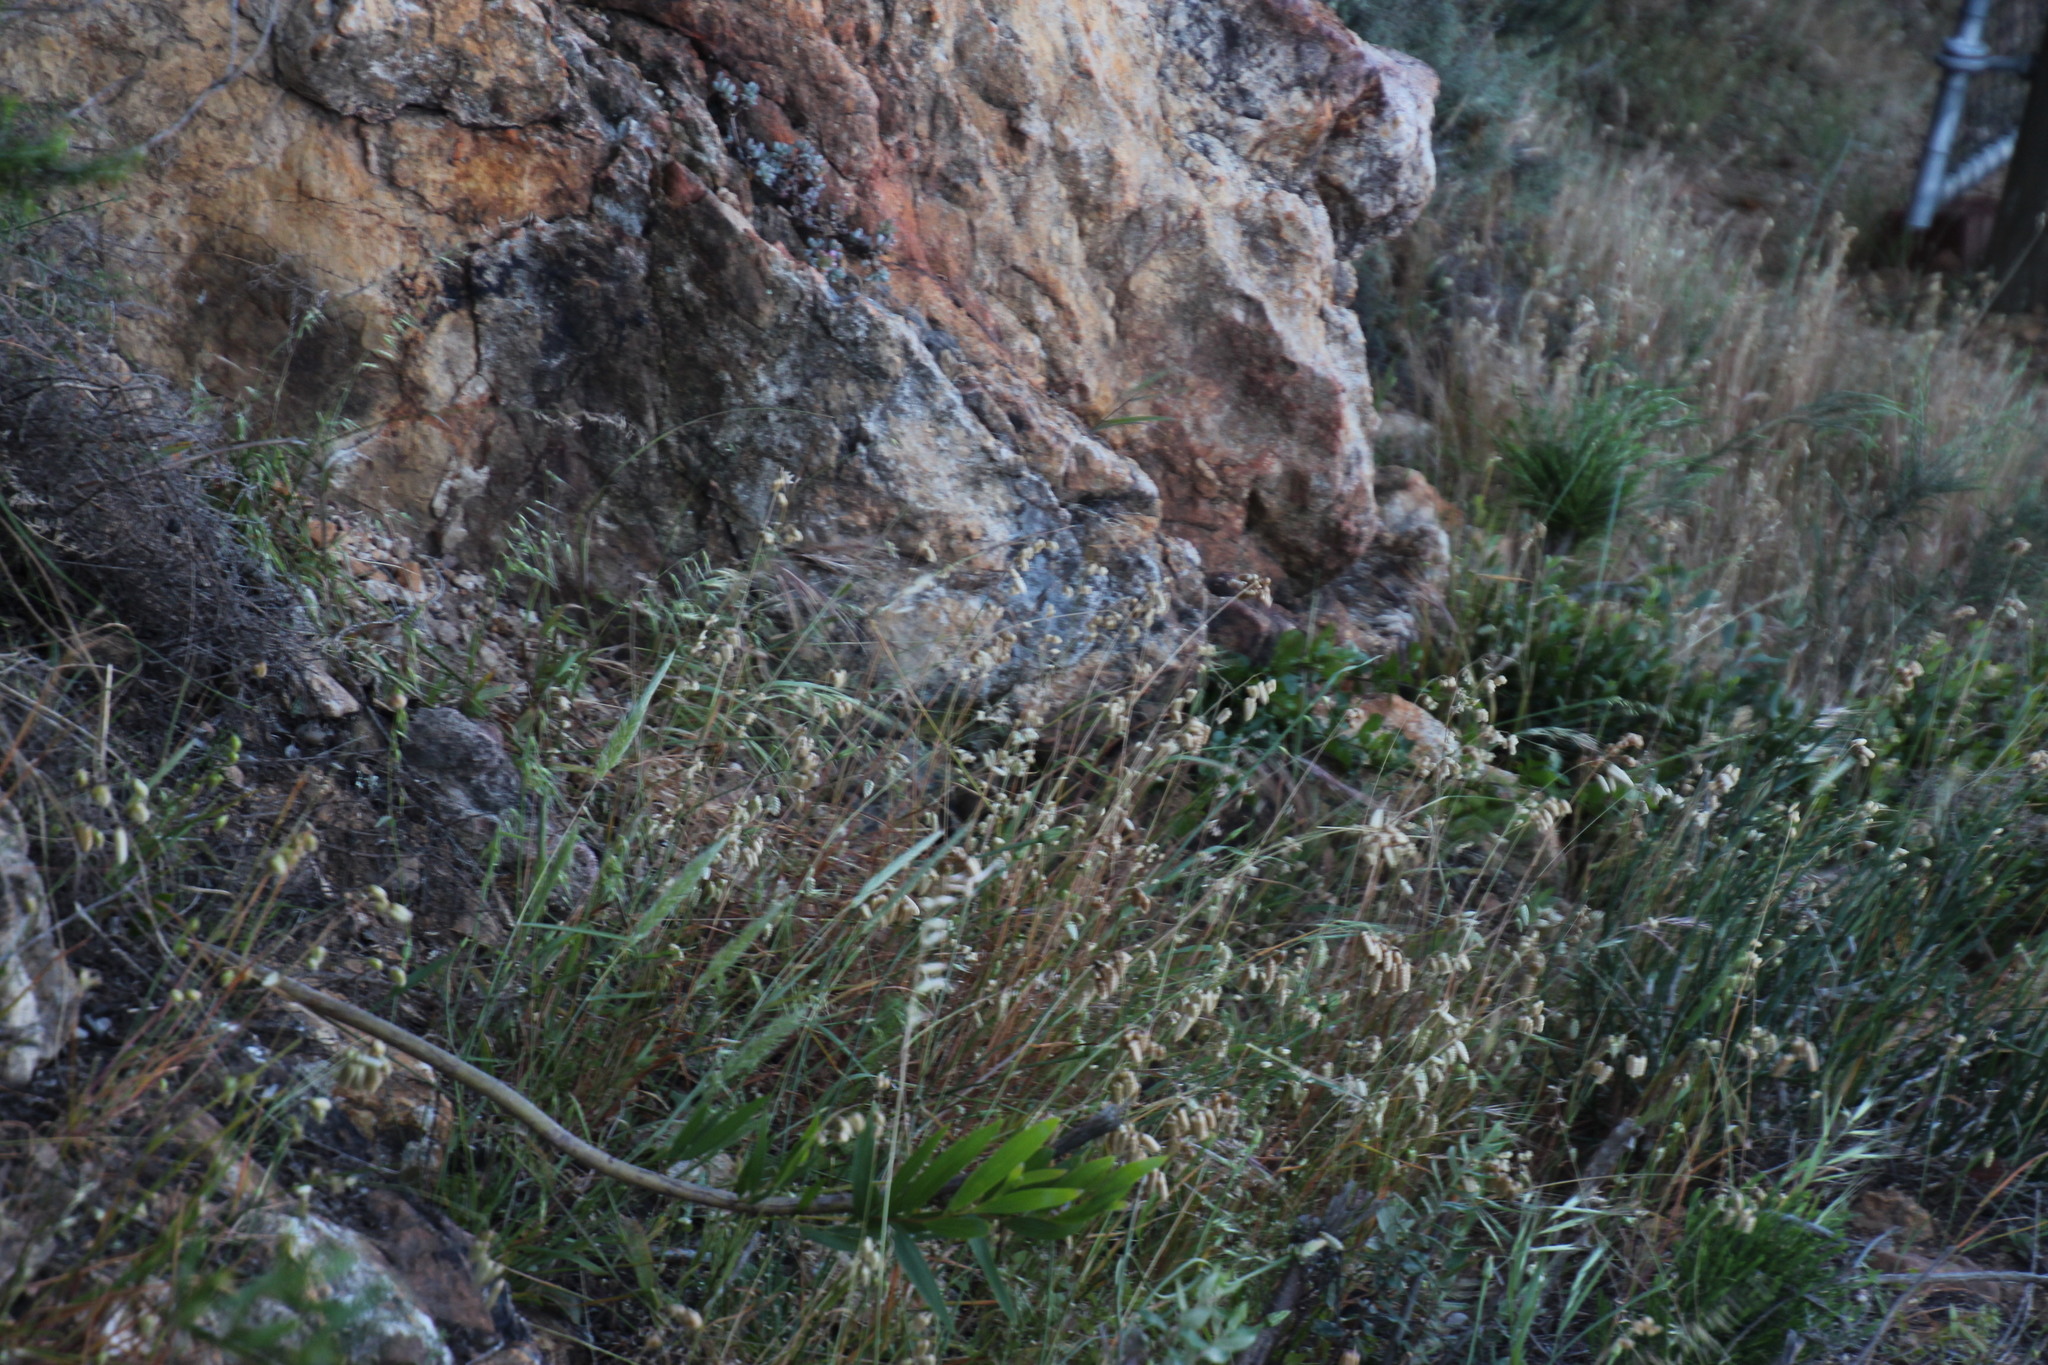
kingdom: Plantae
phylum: Tracheophyta
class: Liliopsida
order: Poales
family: Poaceae
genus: Briza
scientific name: Briza maxima
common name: Big quakinggrass
